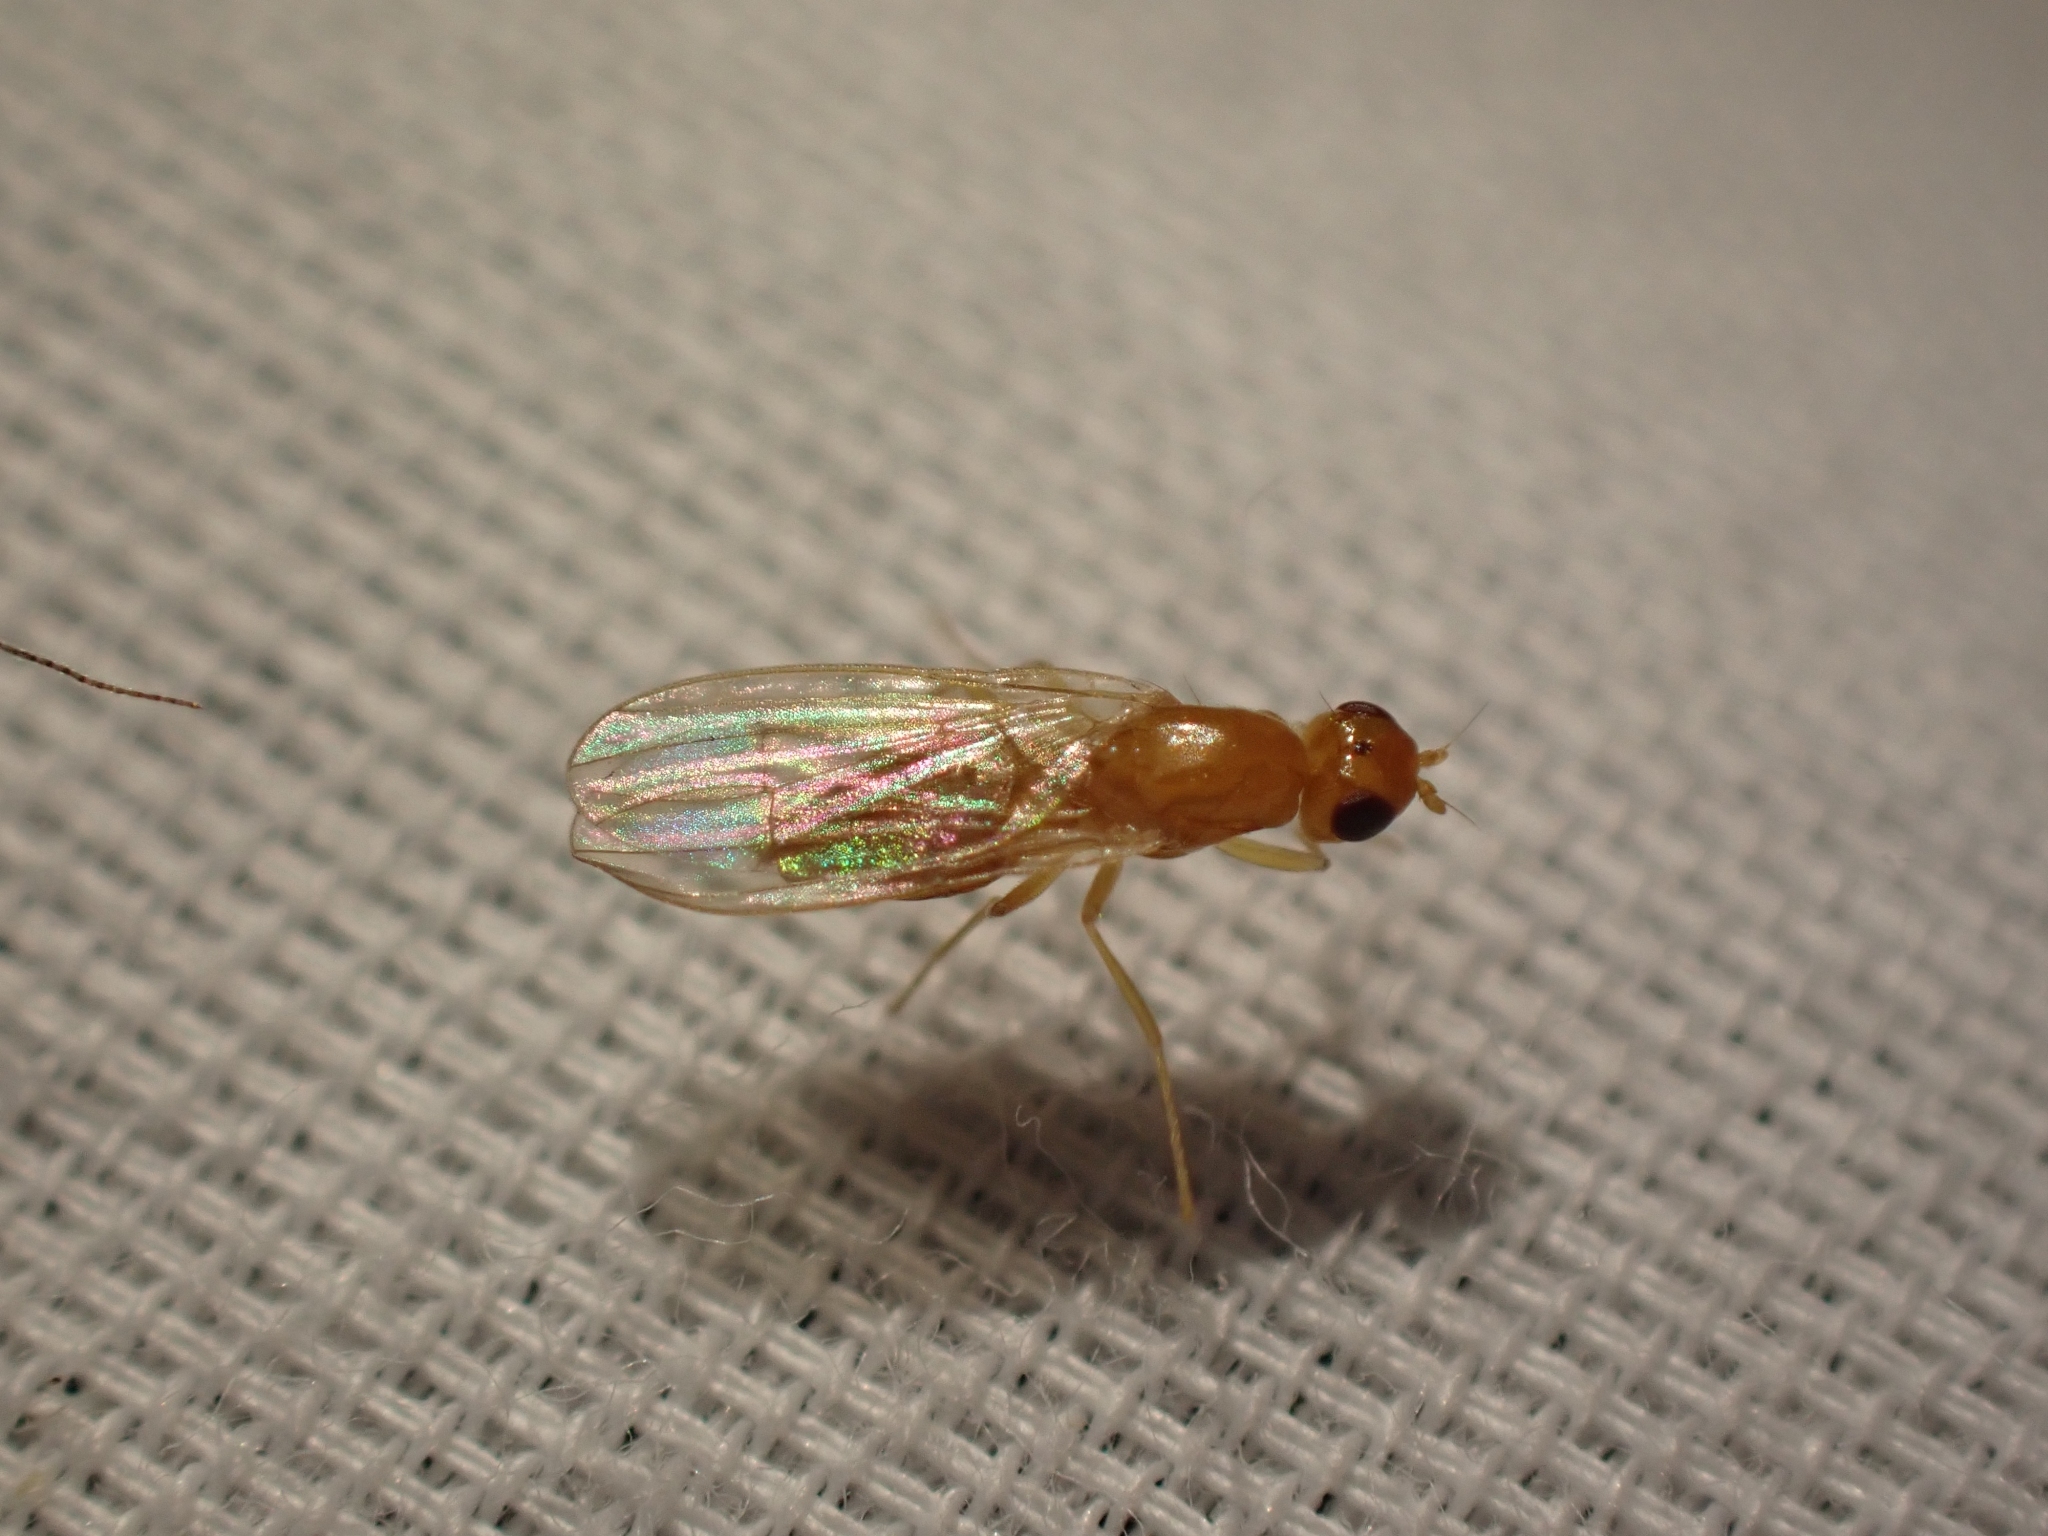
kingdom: Animalia
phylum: Arthropoda
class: Insecta
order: Diptera
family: Psilidae
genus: Psila
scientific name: Psila microcera
